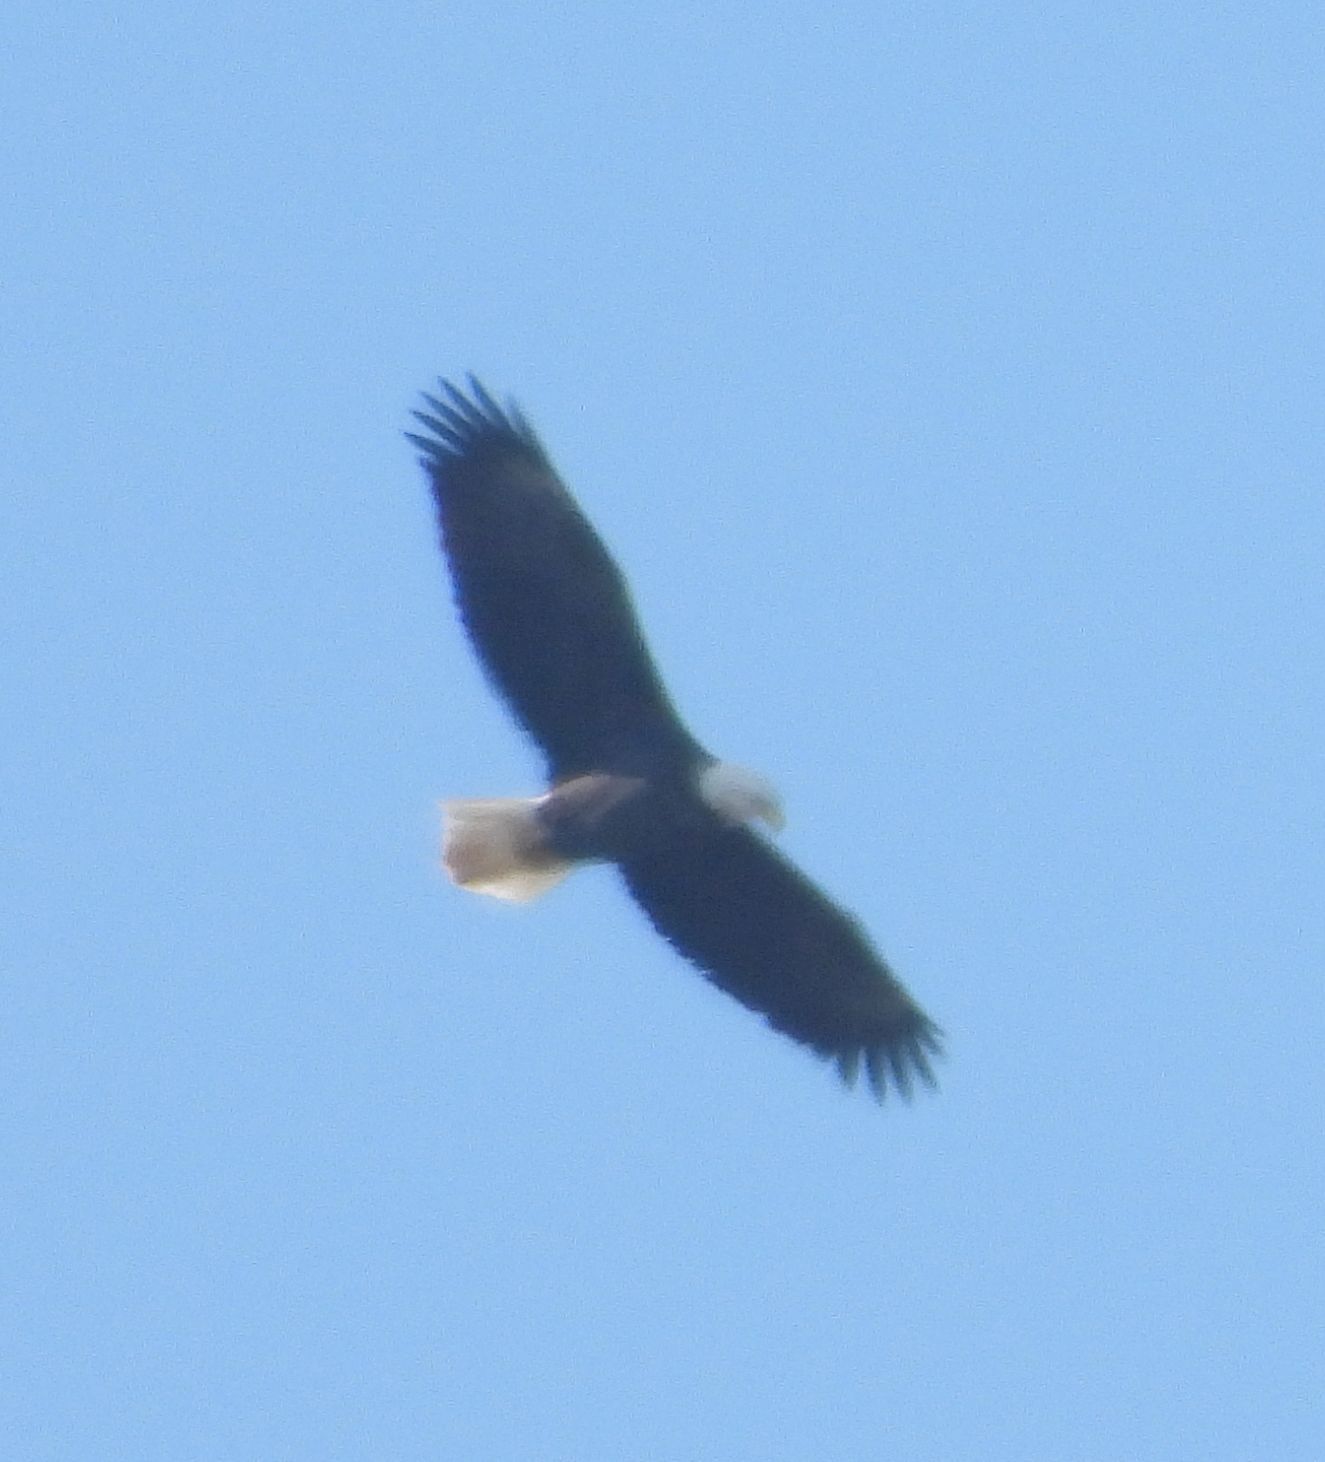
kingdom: Animalia
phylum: Chordata
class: Aves
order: Accipitriformes
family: Accipitridae
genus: Haliaeetus
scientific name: Haliaeetus leucocephalus
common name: Bald eagle
